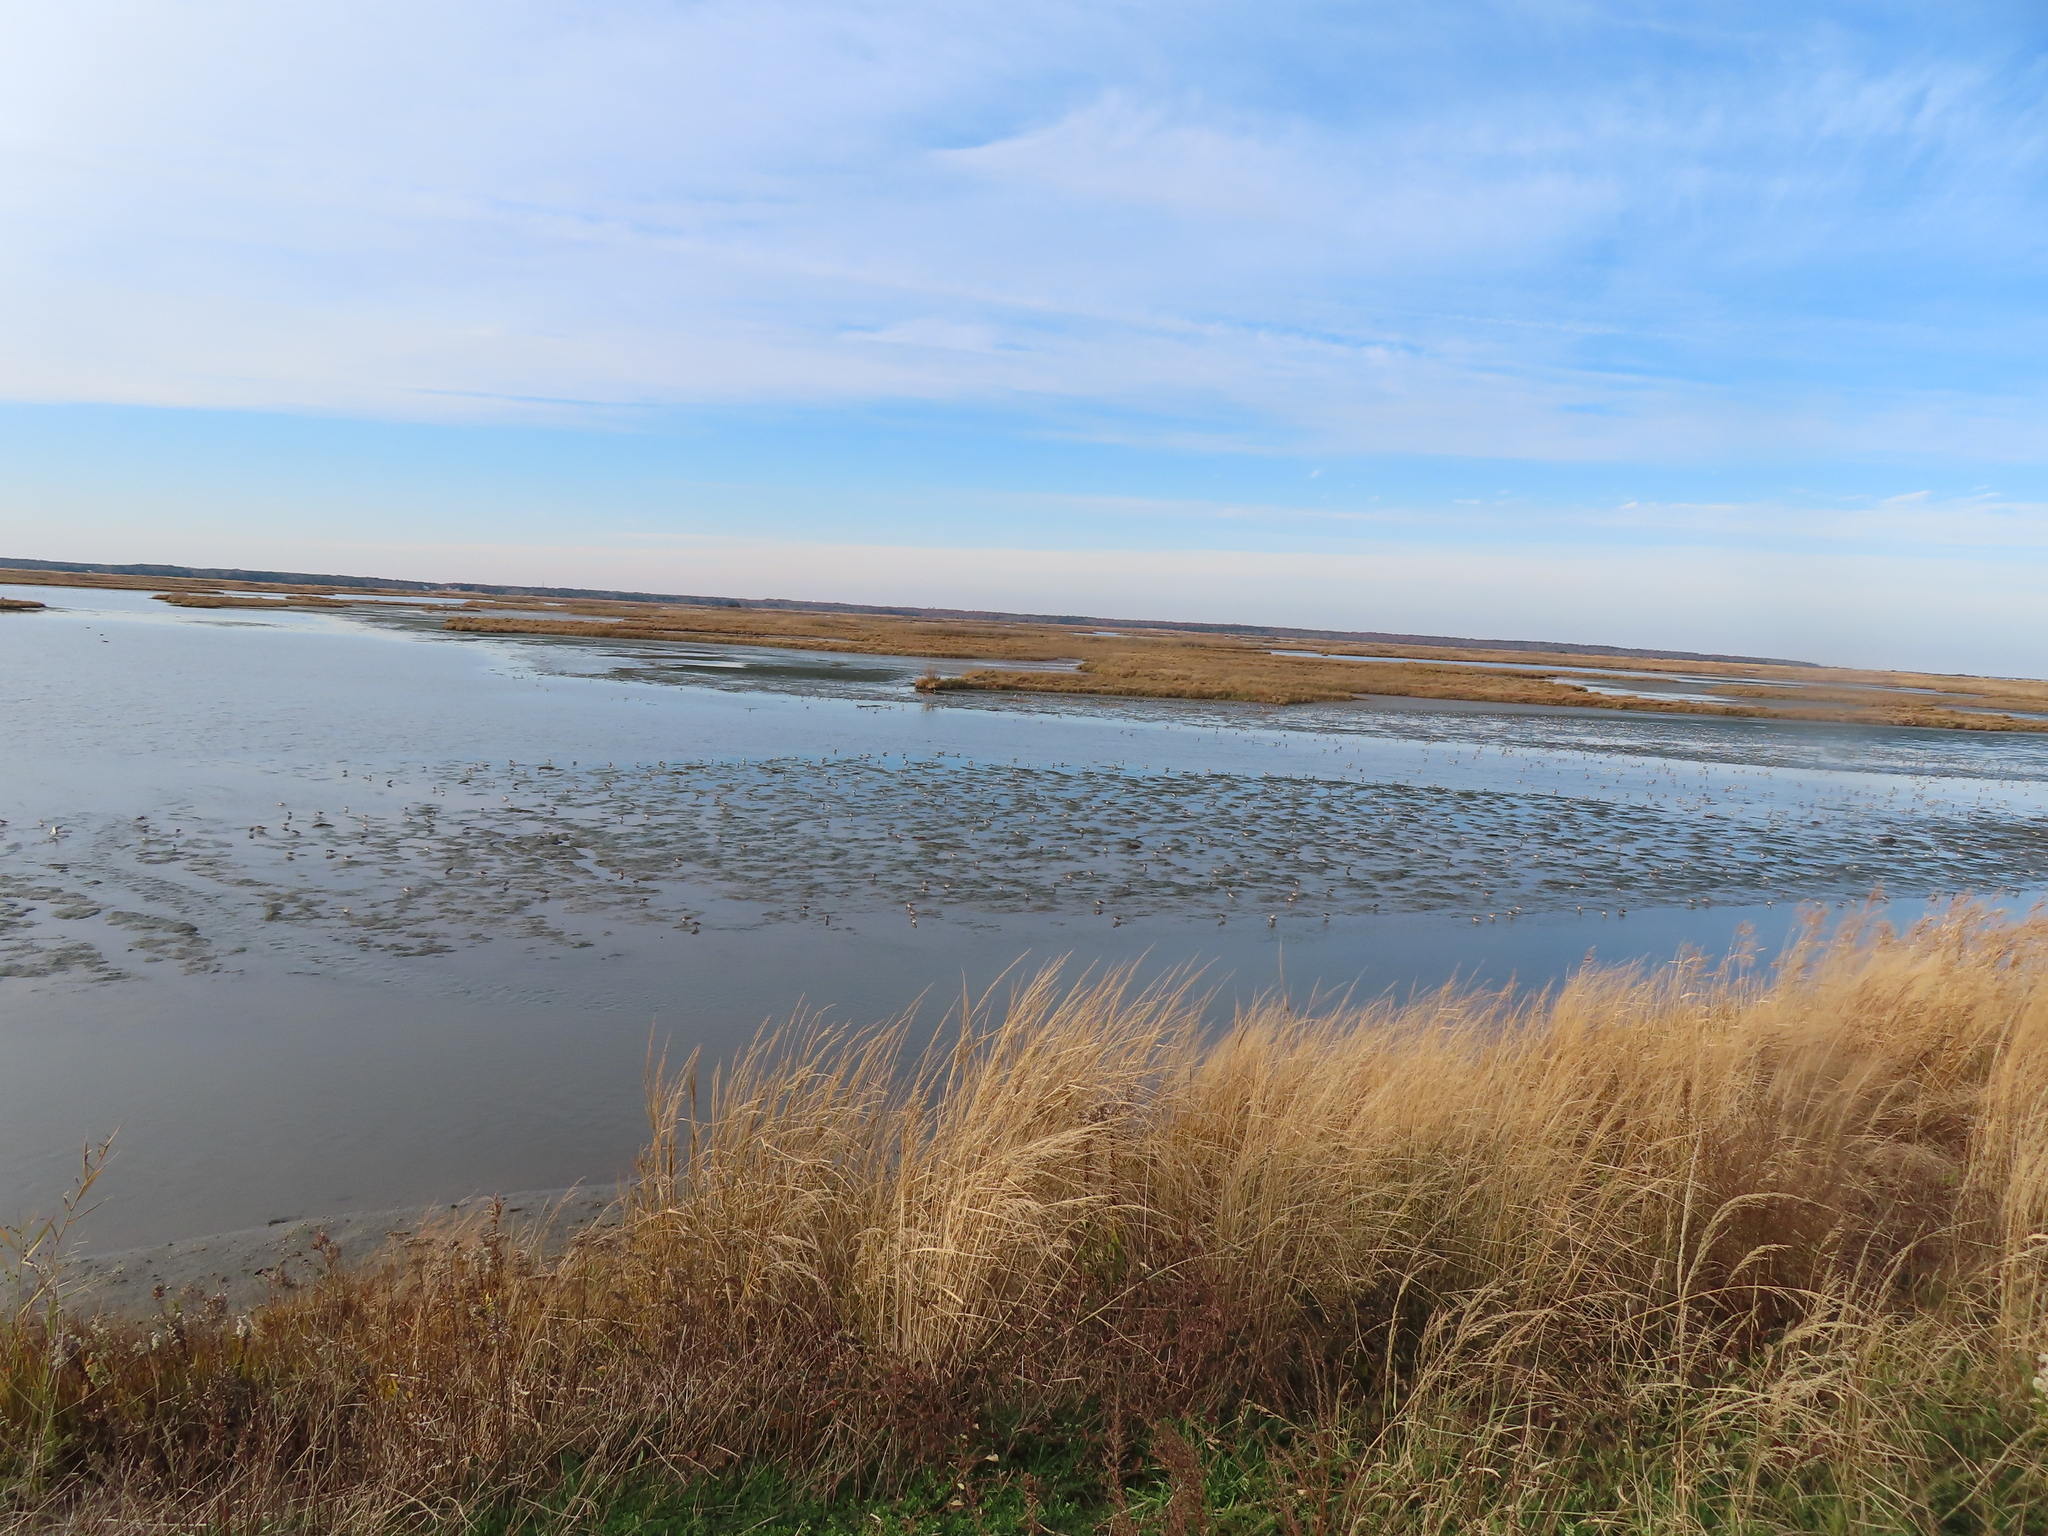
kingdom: Animalia
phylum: Chordata
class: Aves
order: Charadriiformes
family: Scolopacidae
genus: Calidris
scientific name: Calidris alpina
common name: Dunlin
